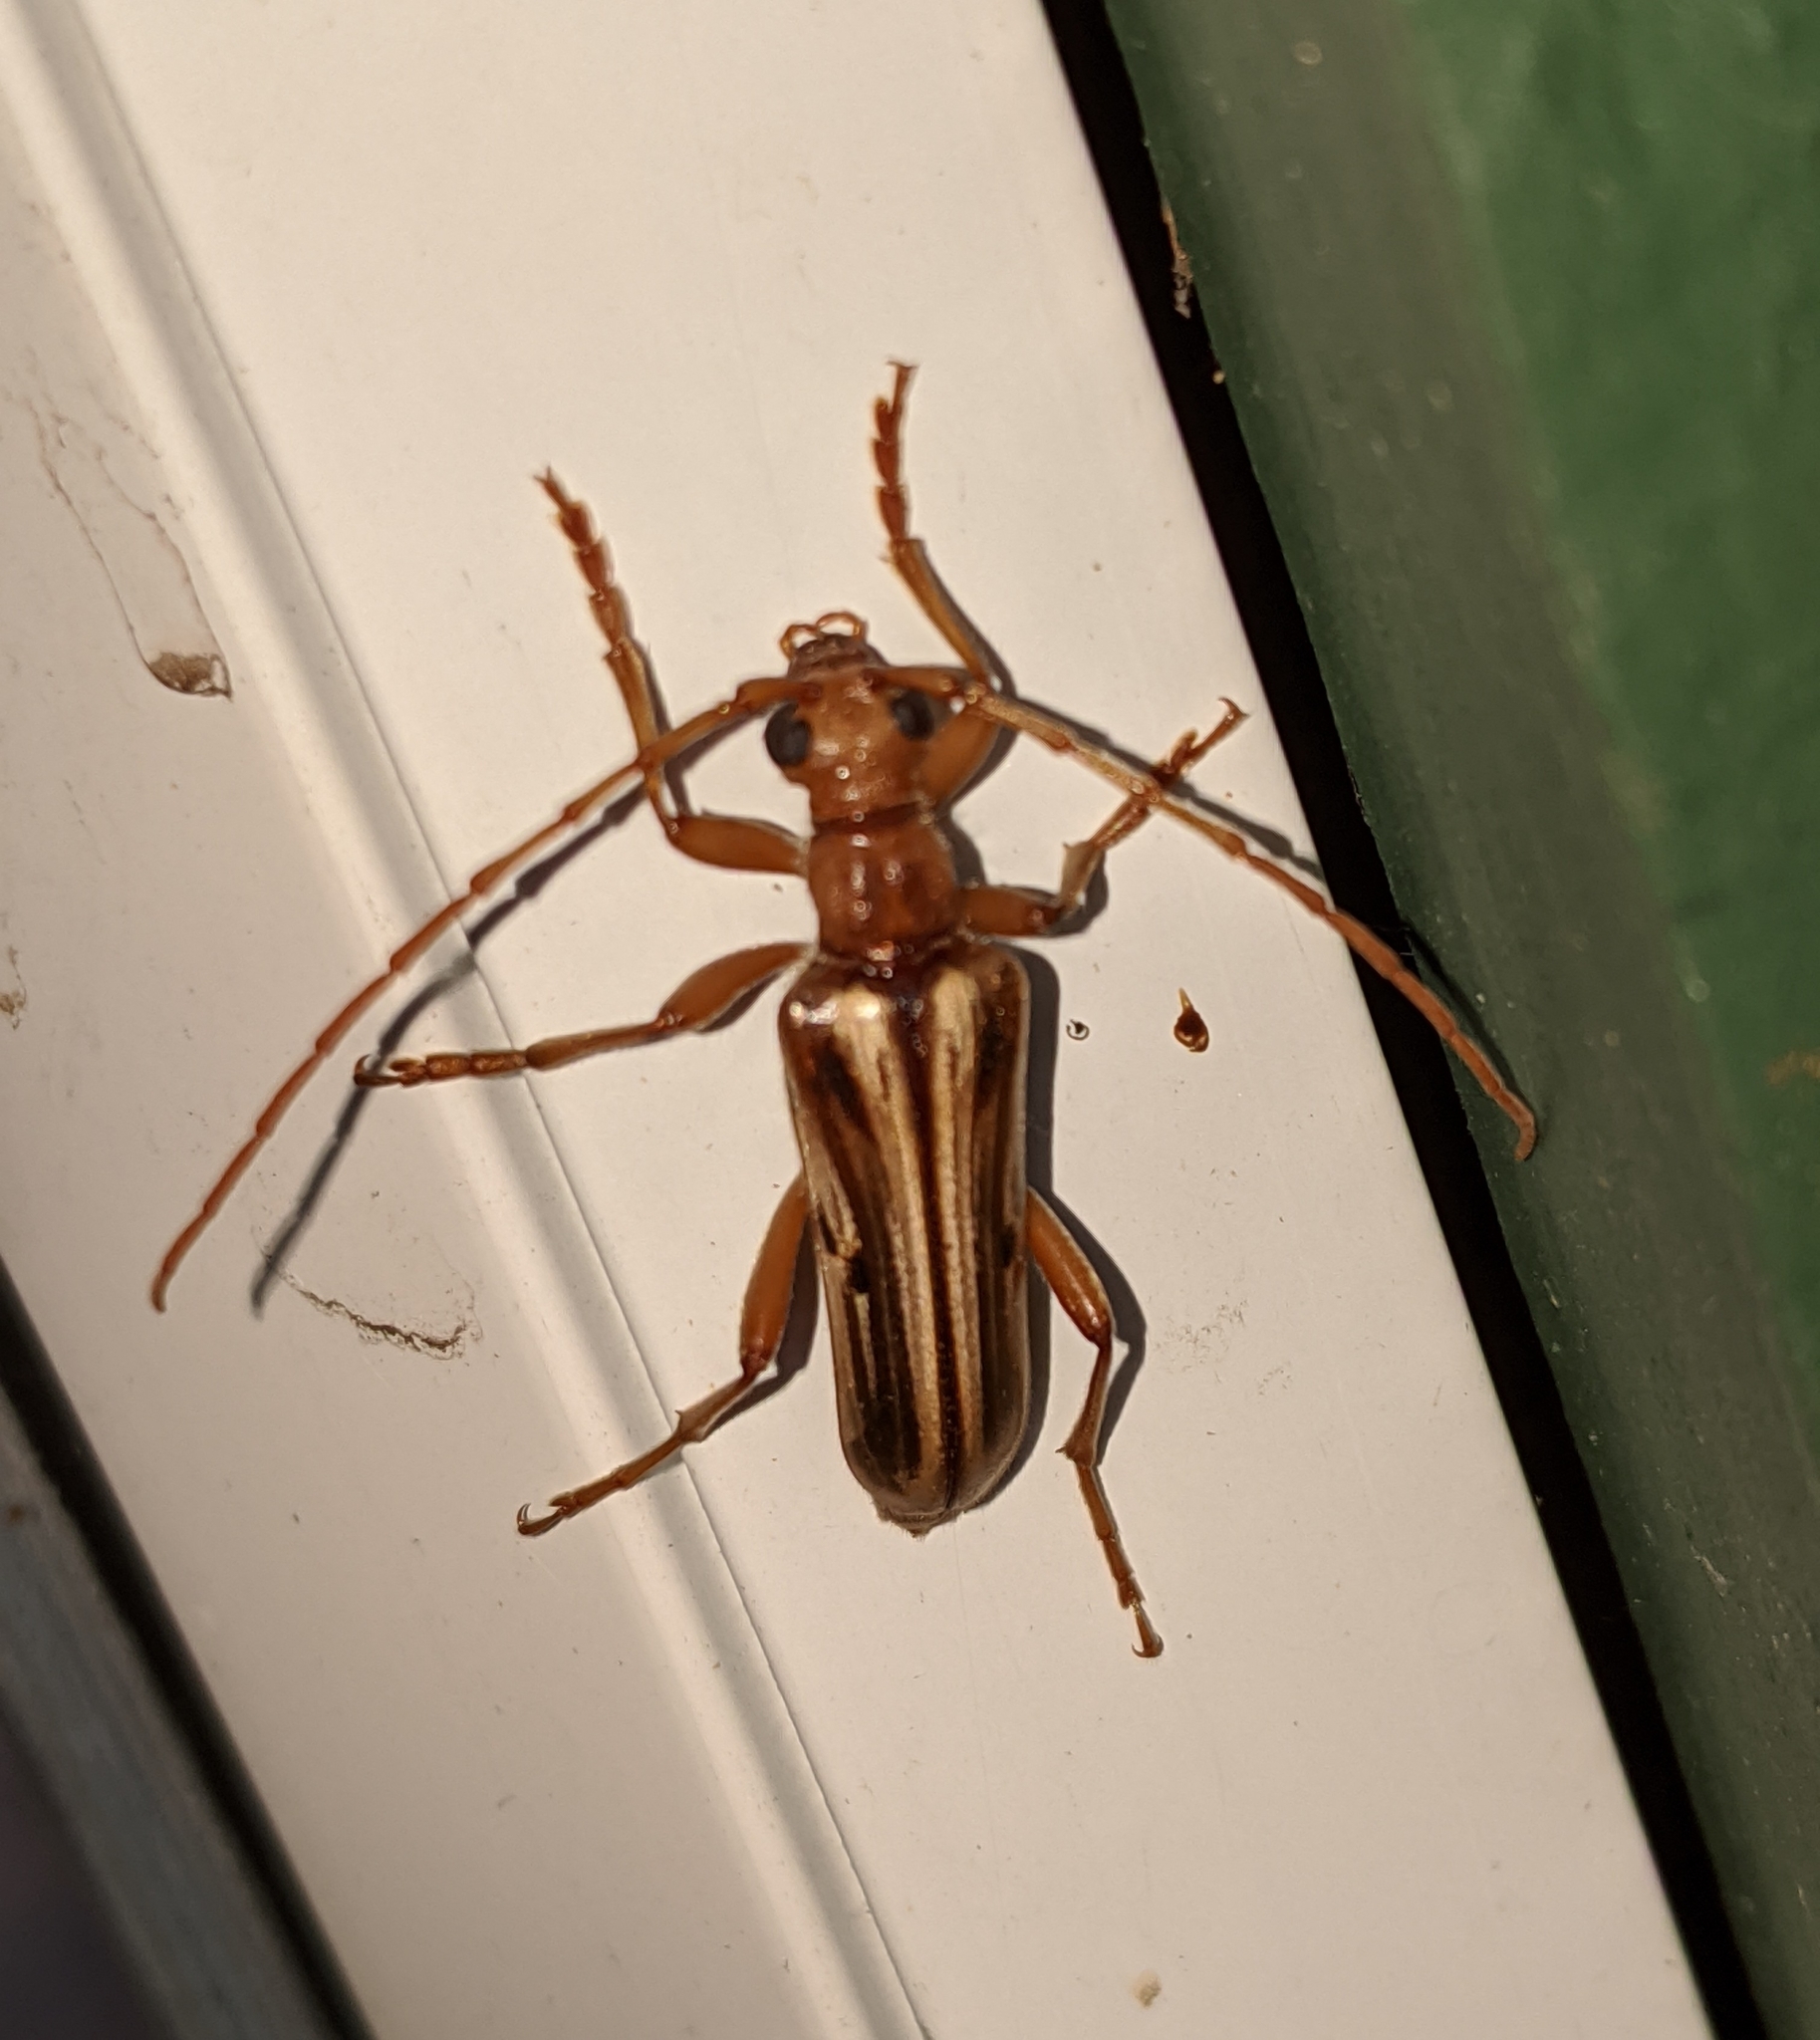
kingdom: Animalia
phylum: Arthropoda
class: Insecta
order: Coleoptera
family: Cerambycidae
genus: Ortholeptura
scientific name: Ortholeptura valida
